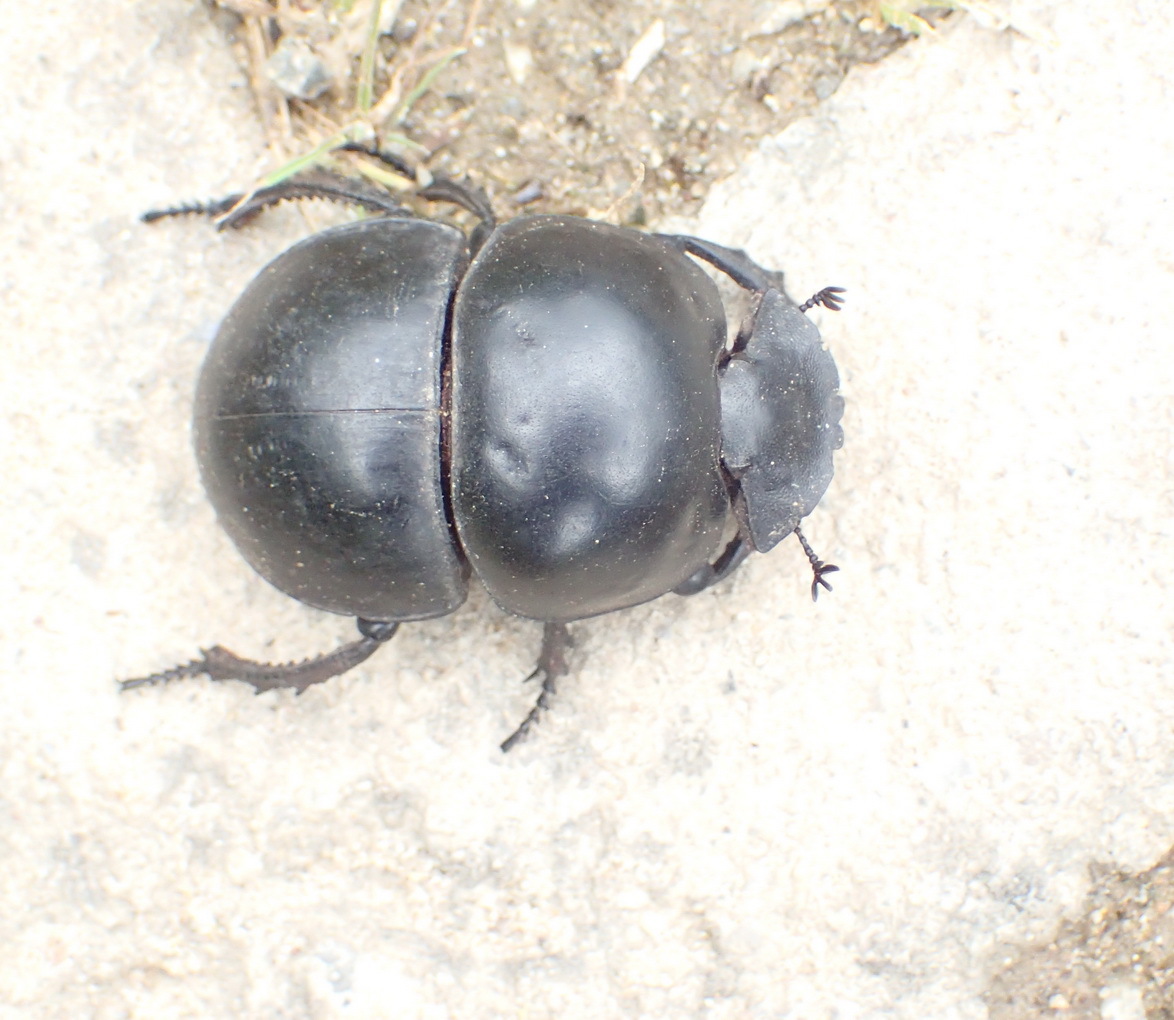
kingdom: Animalia
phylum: Arthropoda
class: Insecta
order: Coleoptera
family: Scarabaeidae
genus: Circellium
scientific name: Circellium bacchus
